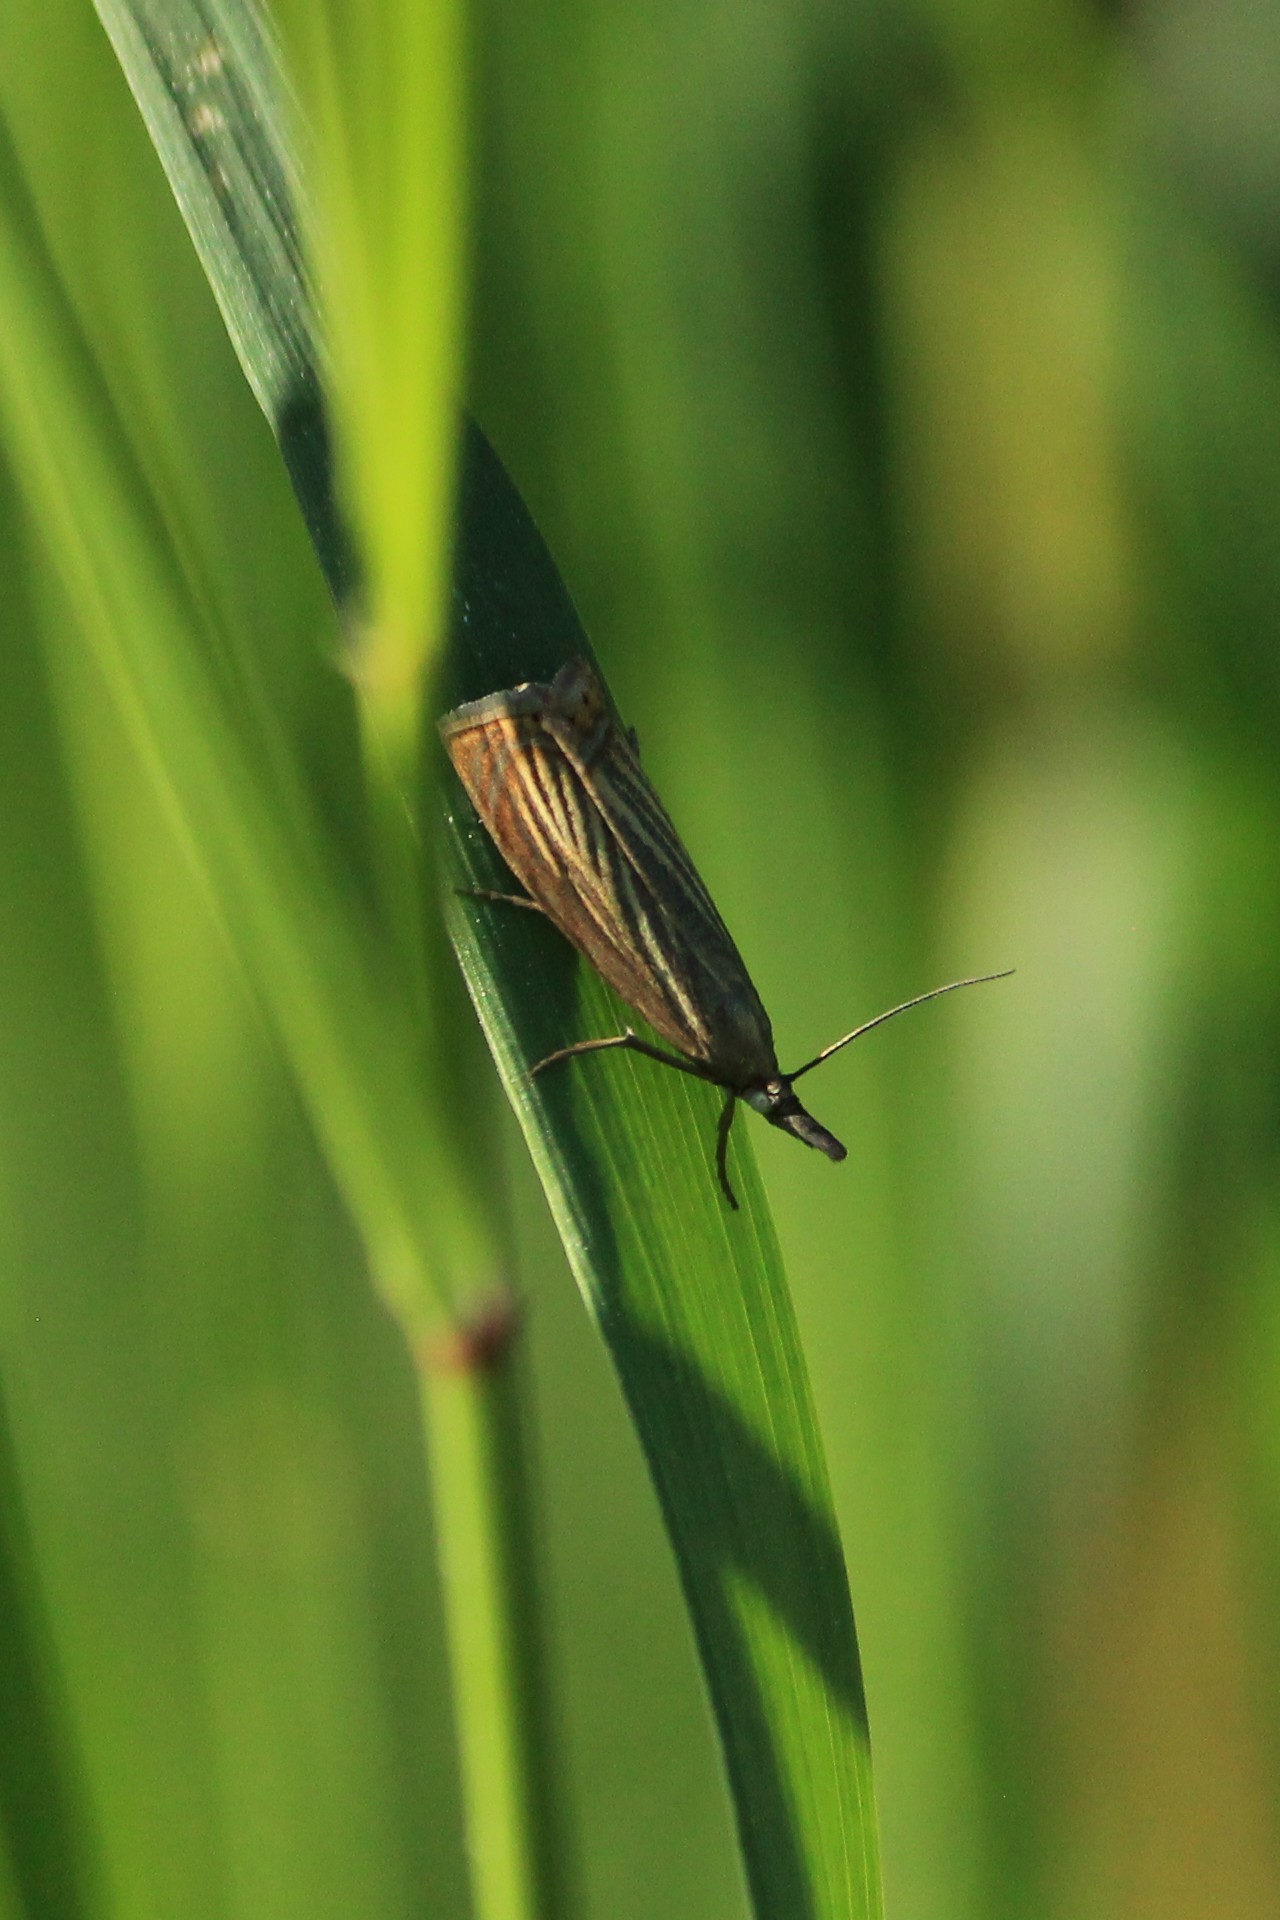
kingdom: Animalia
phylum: Arthropoda
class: Insecta
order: Lepidoptera
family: Crambidae
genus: Chrysoteuchia
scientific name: Chrysoteuchia culmella
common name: Garden grass-veneer
